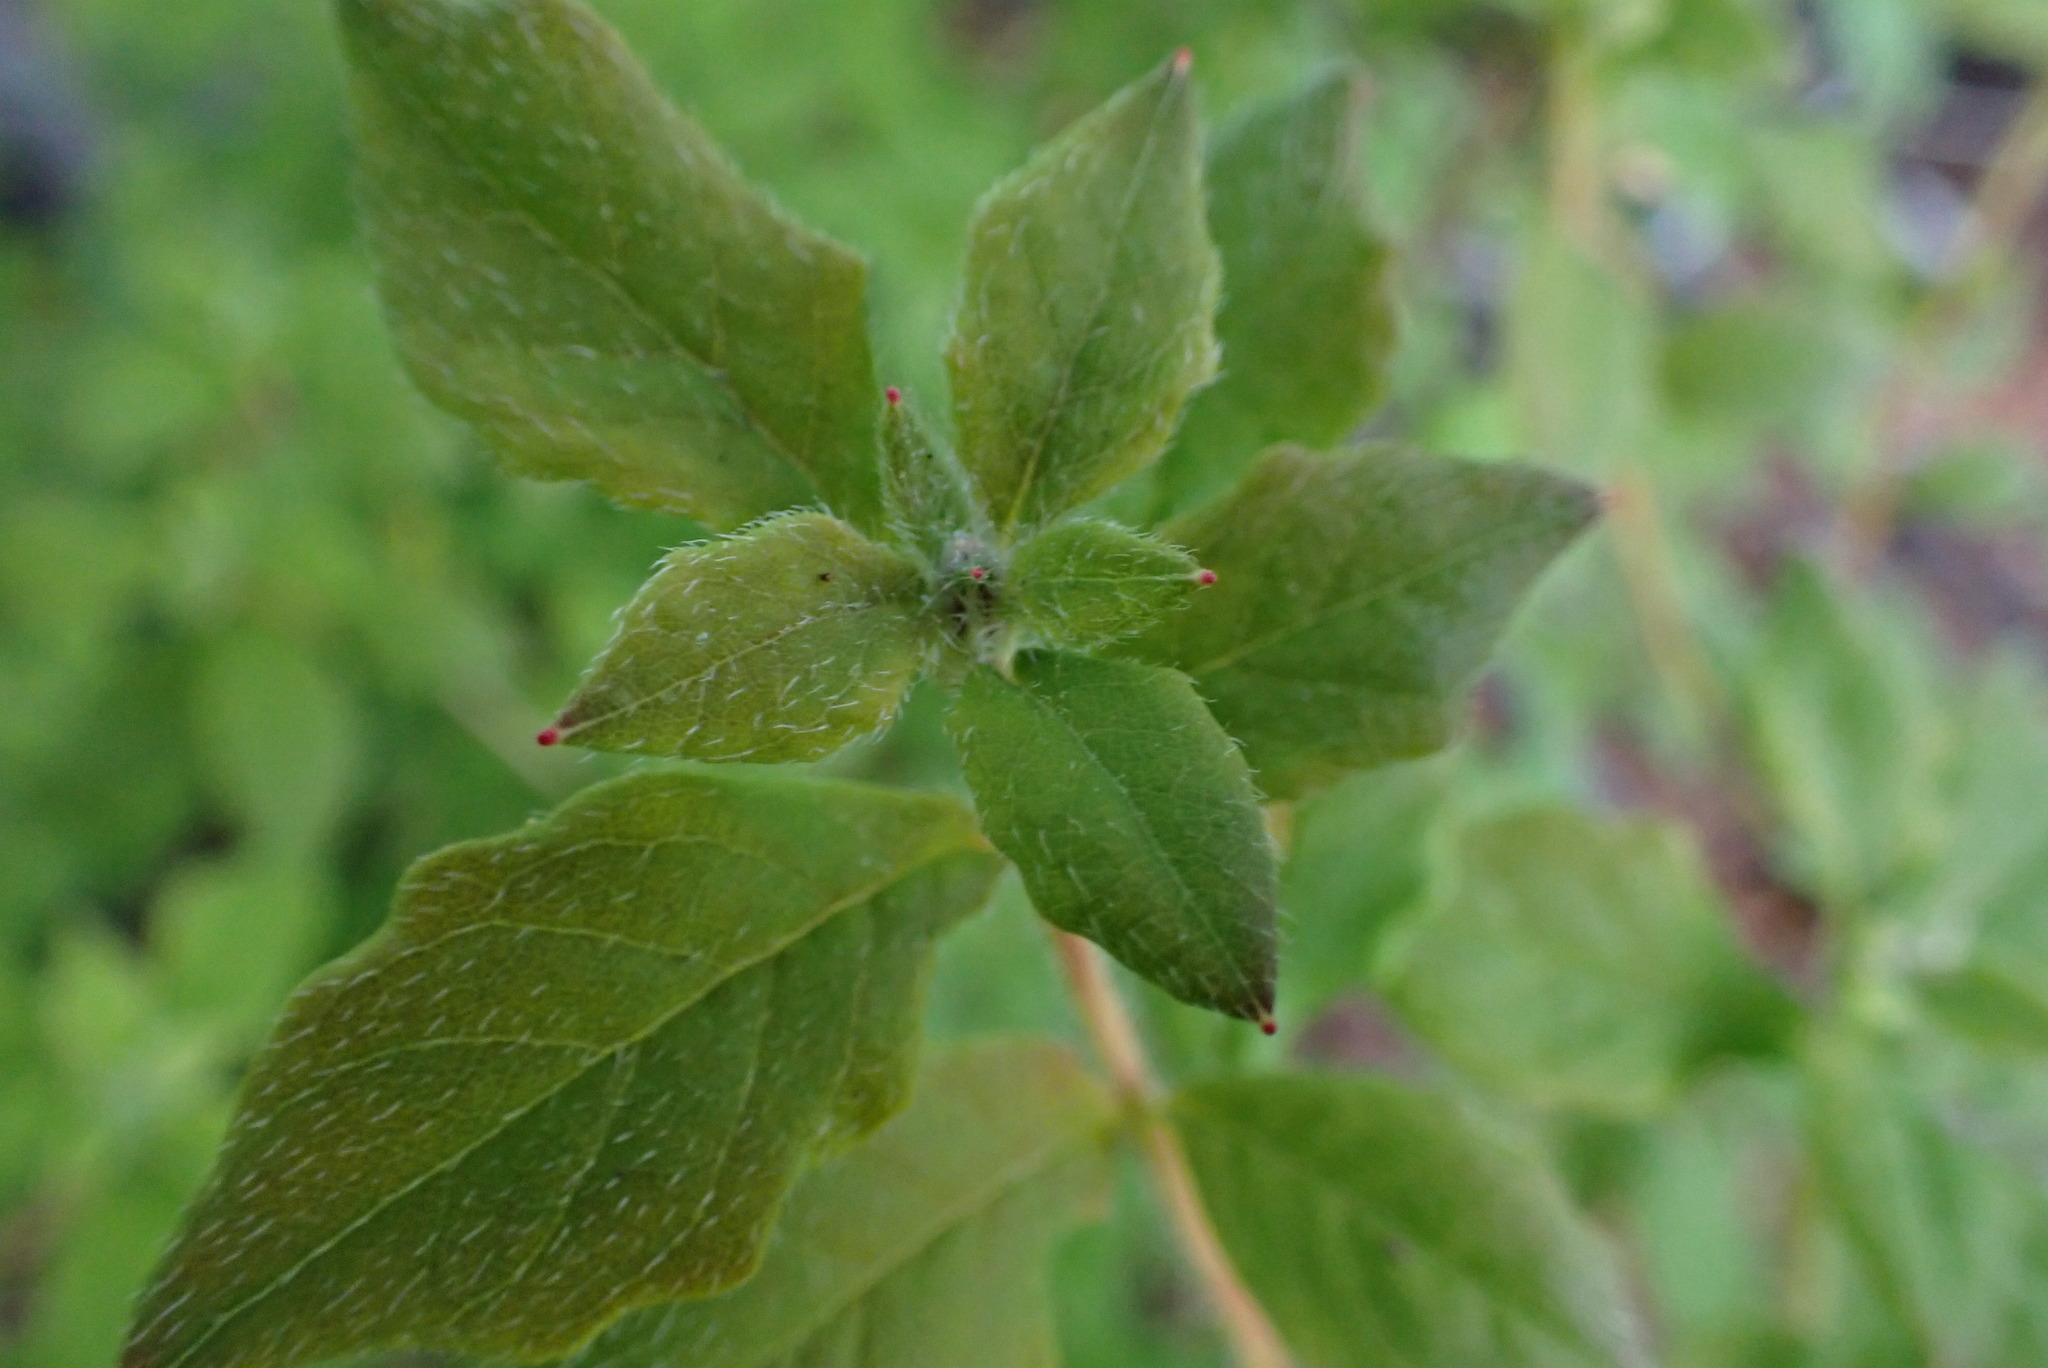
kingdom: Plantae
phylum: Tracheophyta
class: Magnoliopsida
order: Ericales
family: Ericaceae
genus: Rhododendron
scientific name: Rhododendron menziesii
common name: Pacific menziesia
